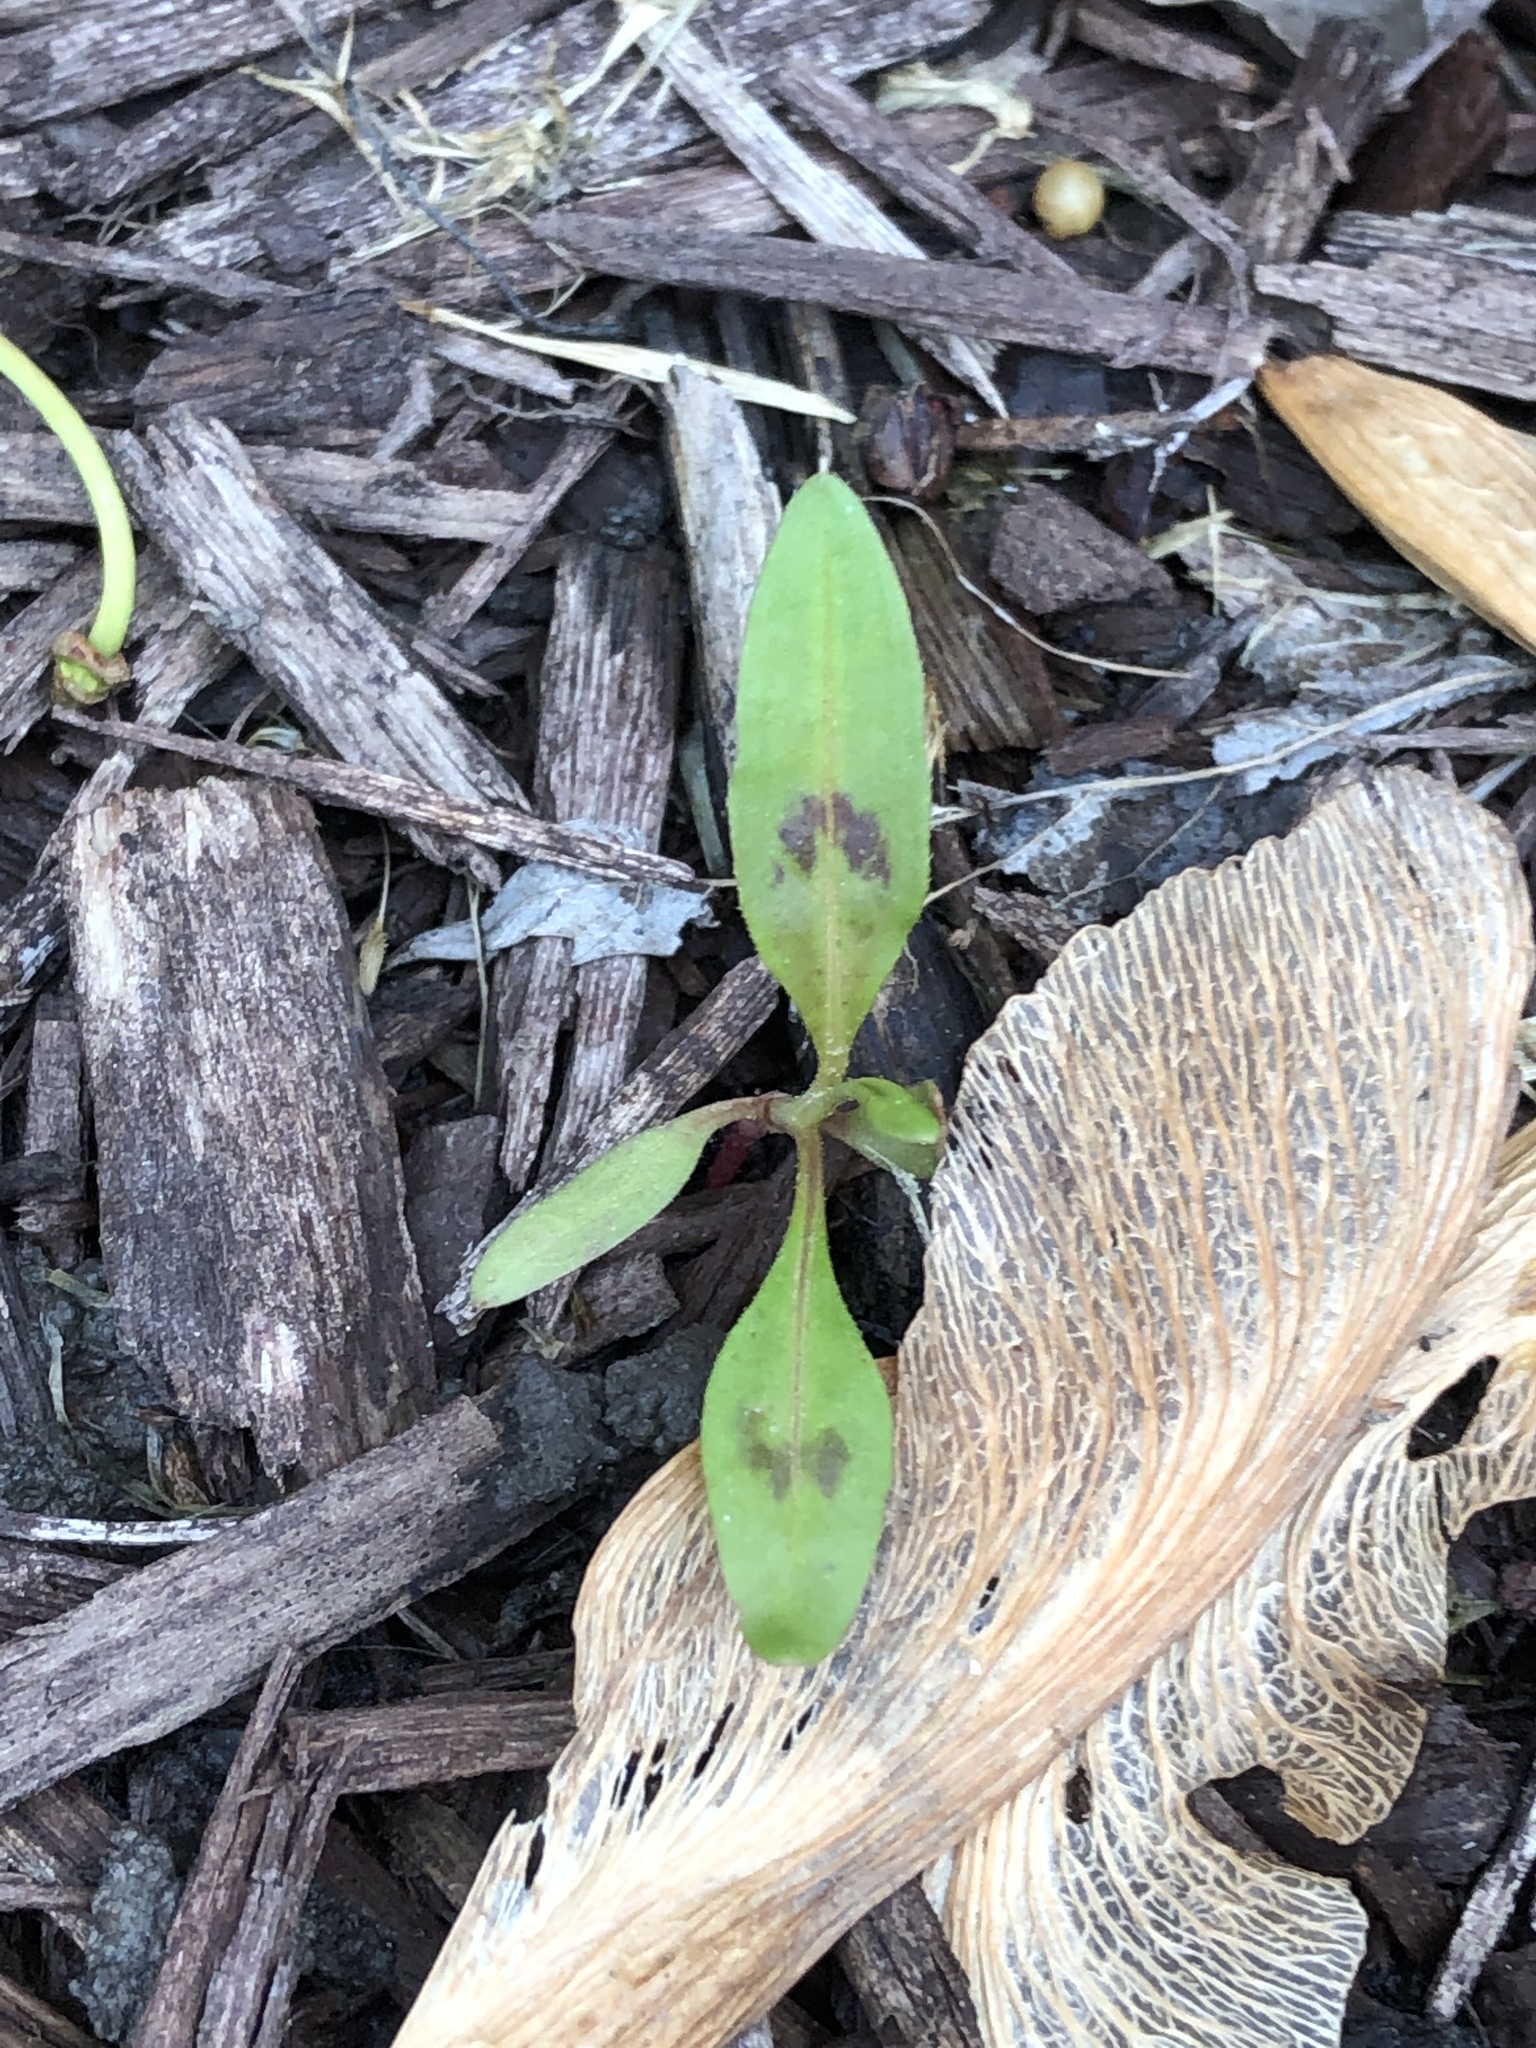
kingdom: Plantae
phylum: Tracheophyta
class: Magnoliopsida
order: Caryophyllales
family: Polygonaceae
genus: Persicaria
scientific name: Persicaria virginiana
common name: Jumpseed
